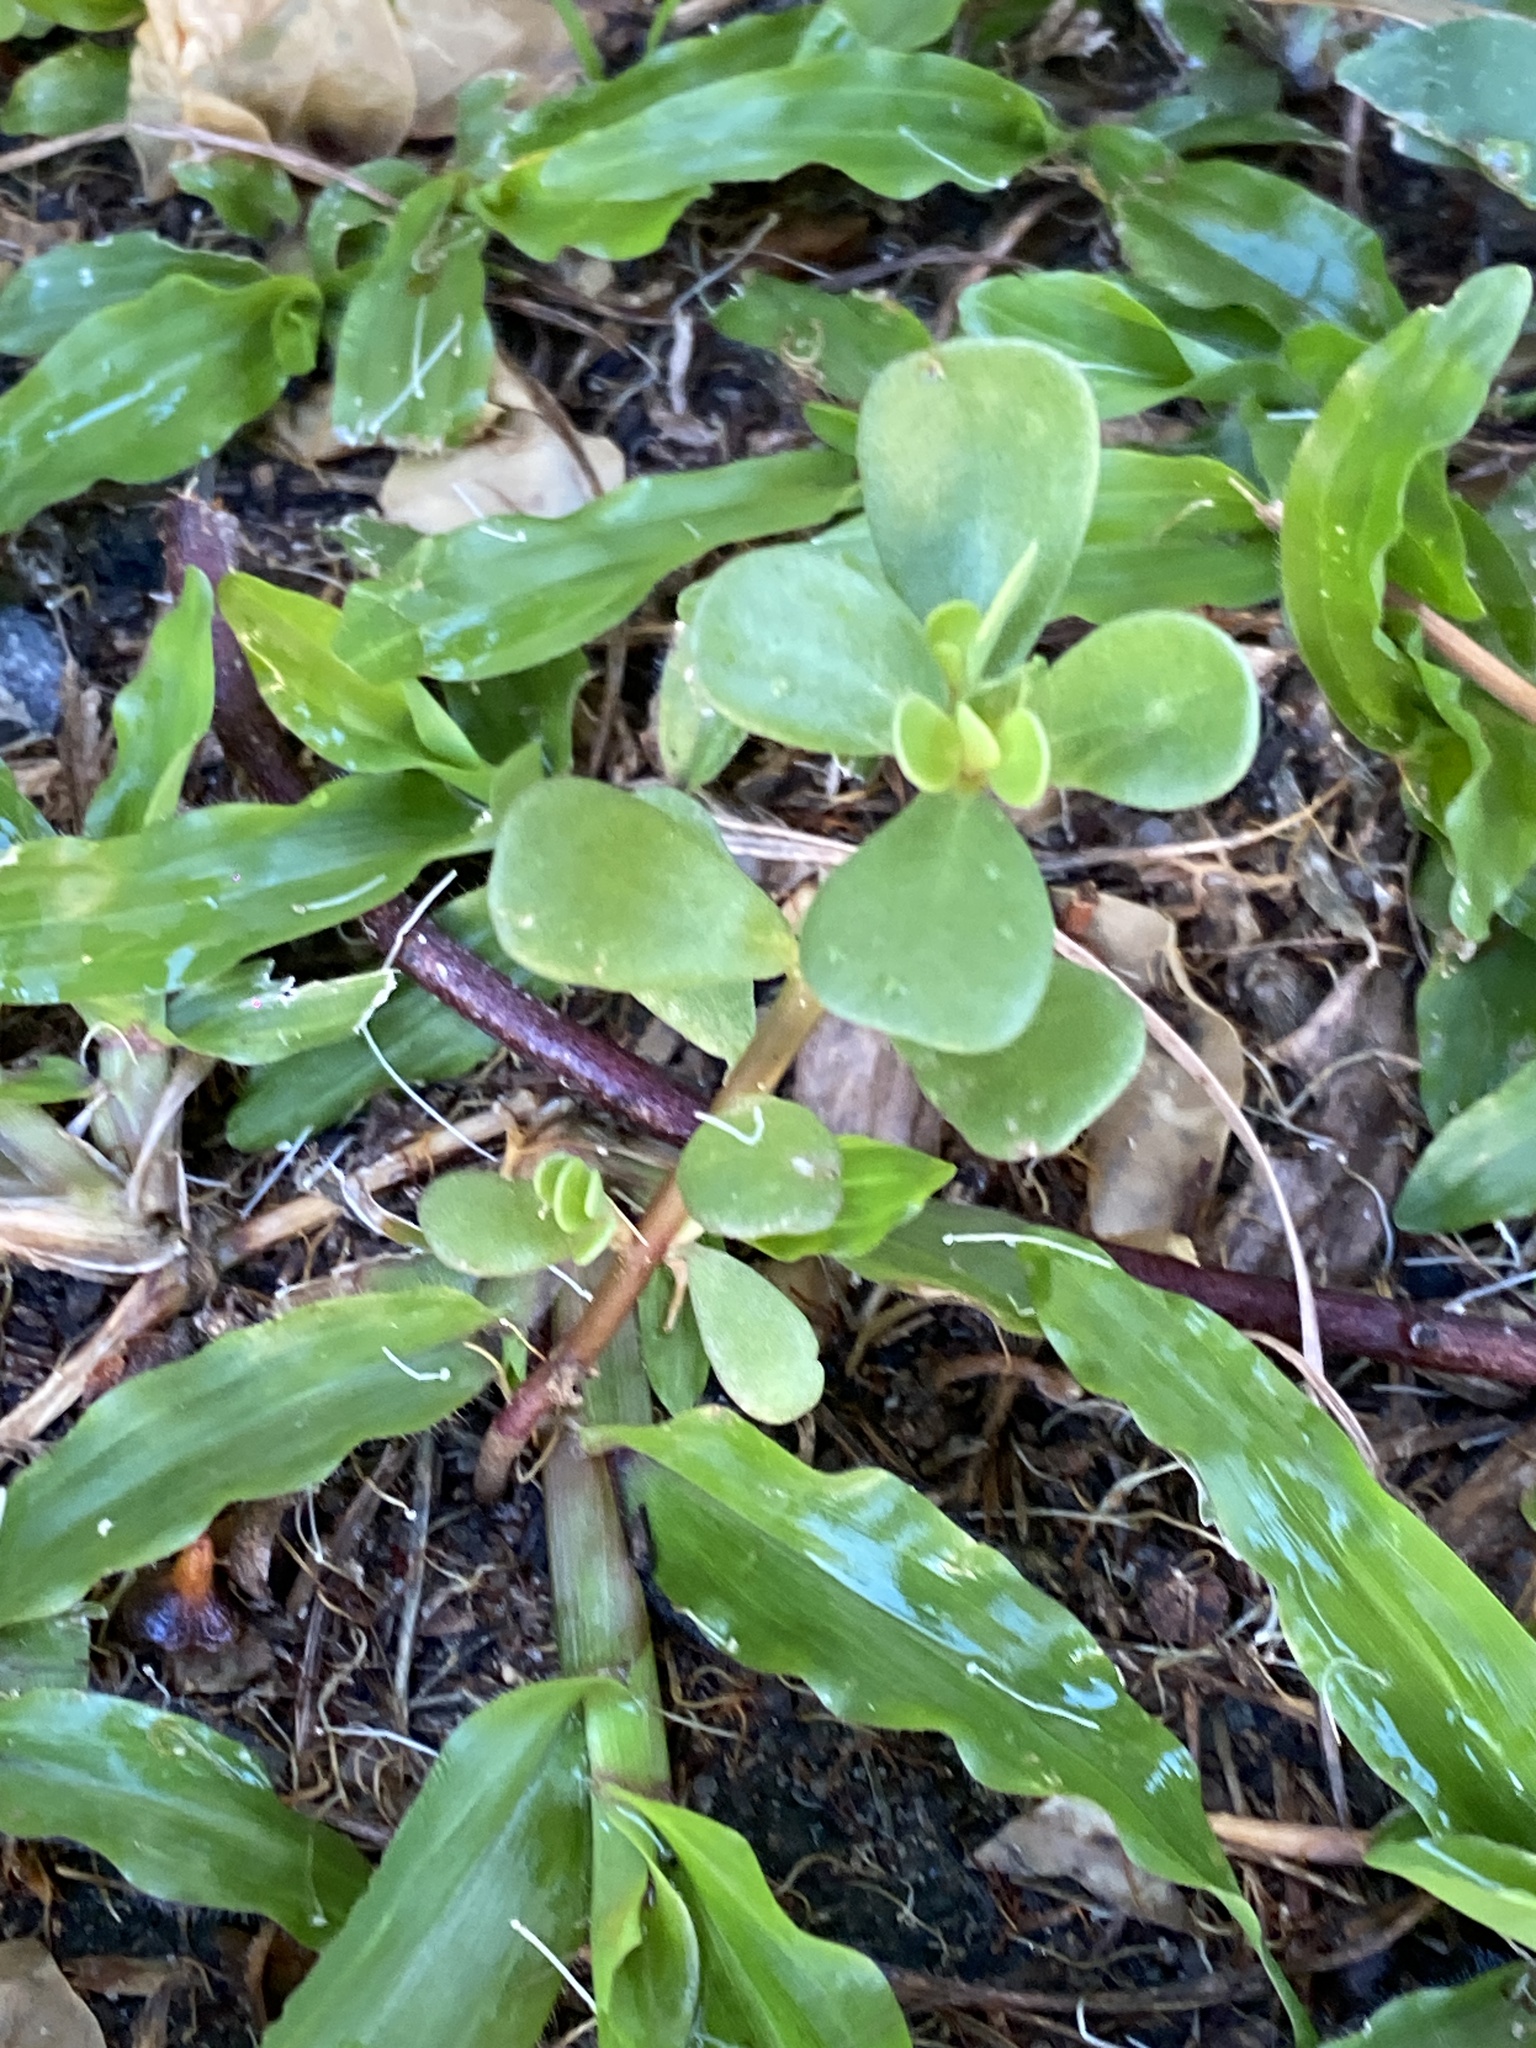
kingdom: Plantae
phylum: Tracheophyta
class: Magnoliopsida
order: Caryophyllales
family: Portulacaceae
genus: Portulaca
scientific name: Portulaca oleracea
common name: Common purslane
